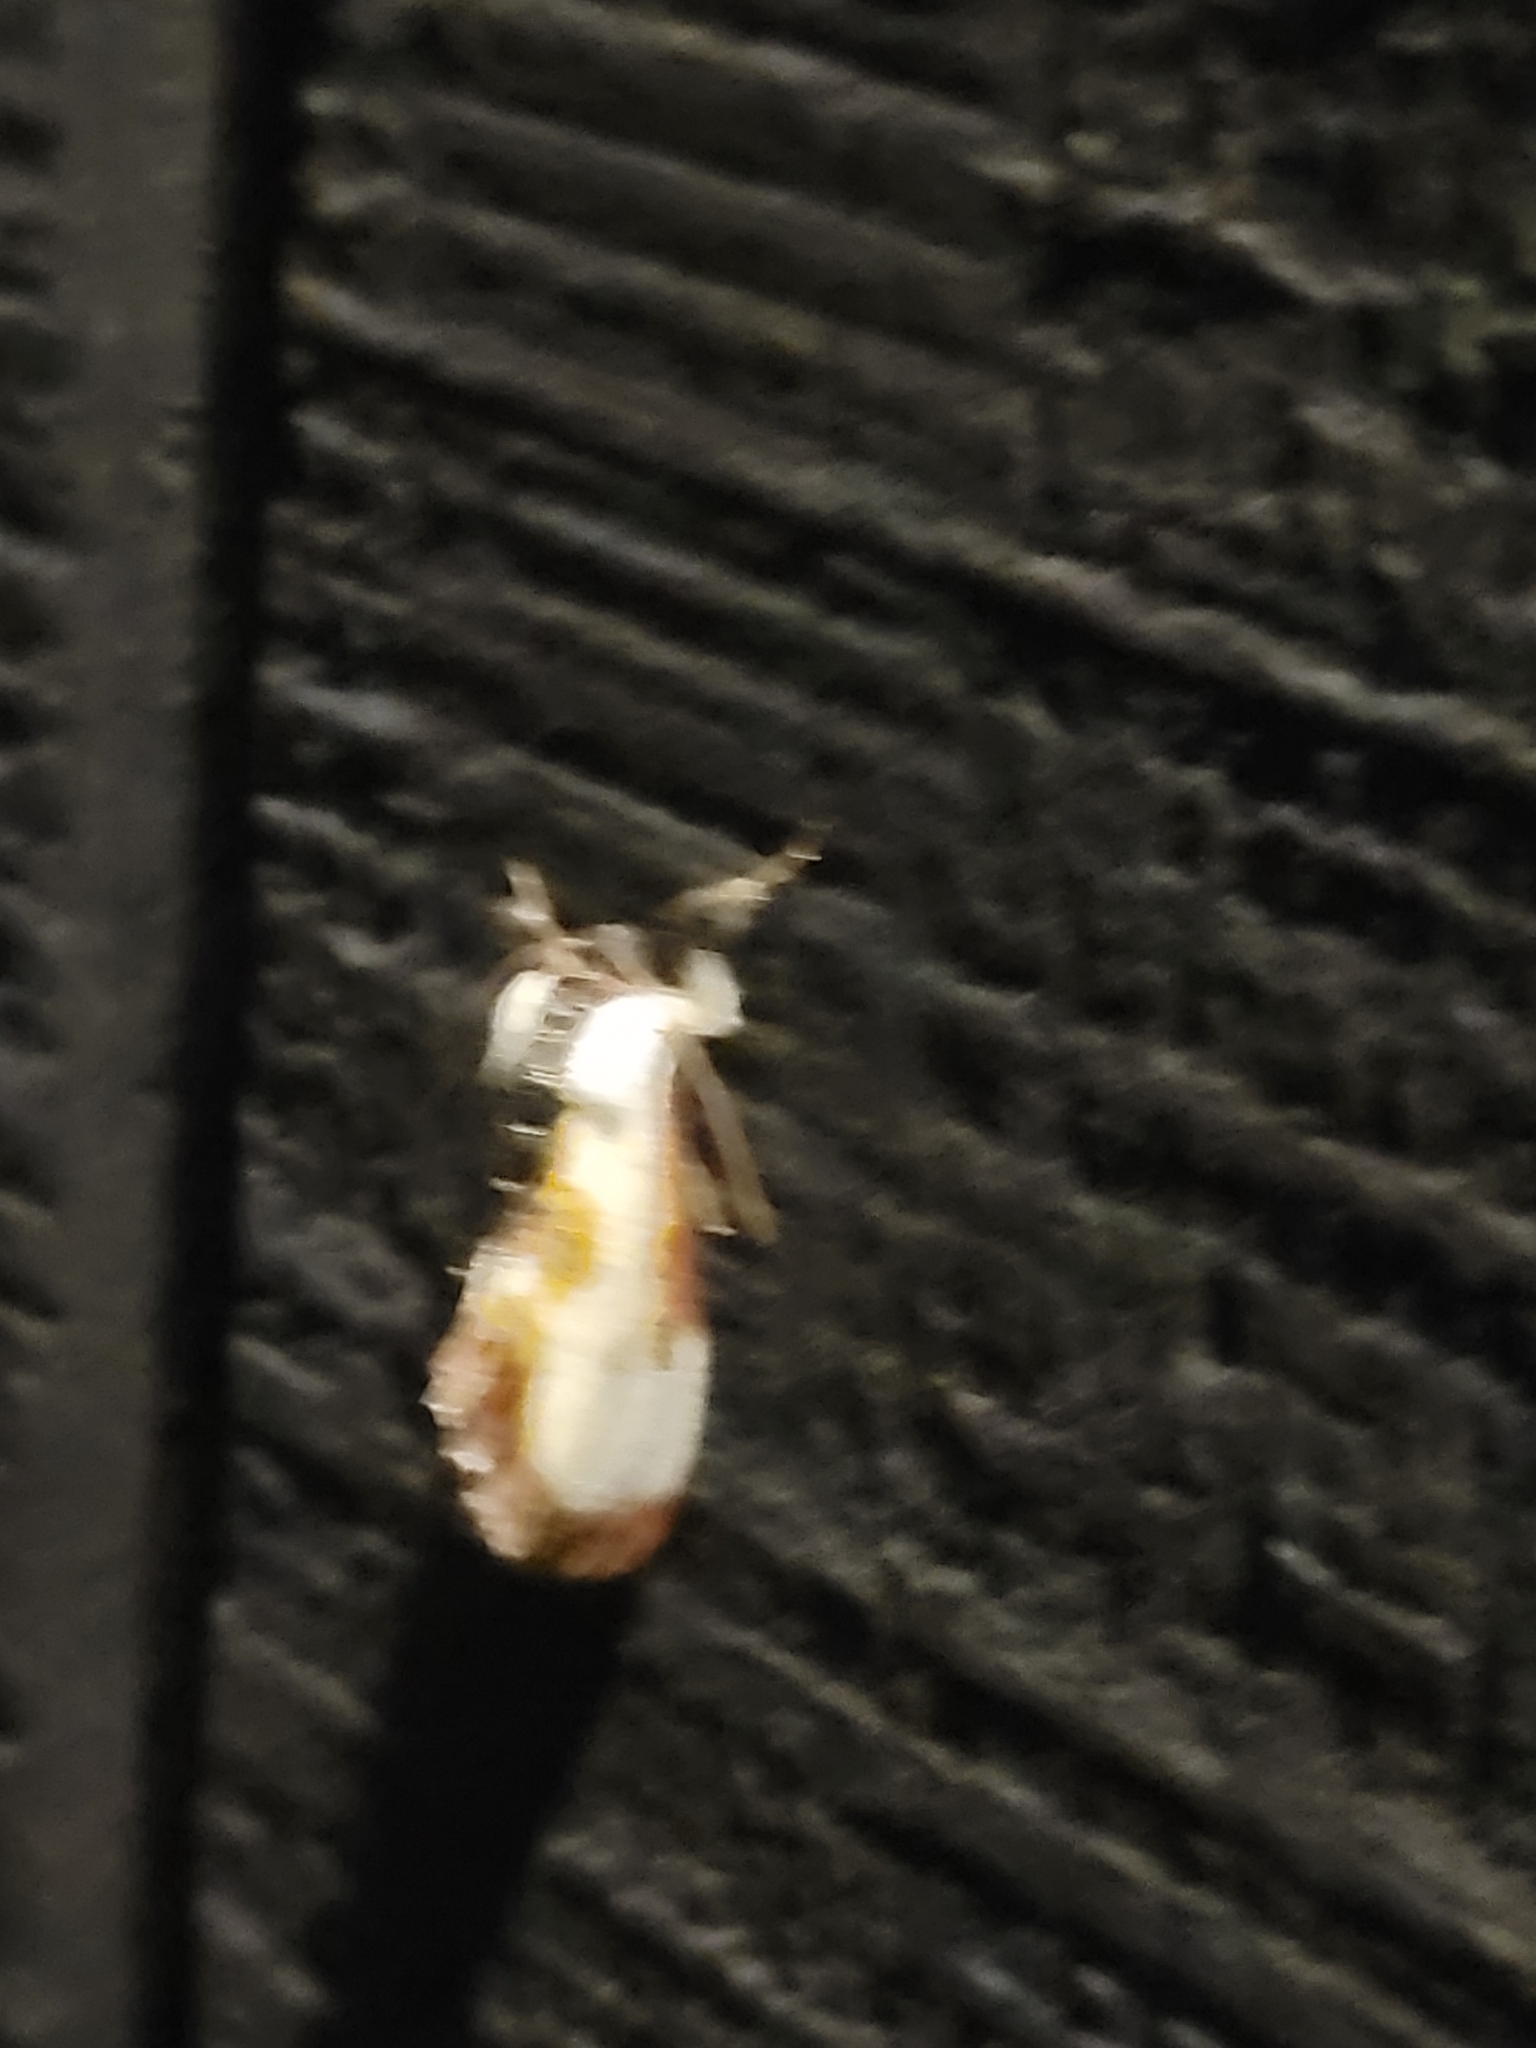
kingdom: Animalia
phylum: Arthropoda
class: Insecta
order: Lepidoptera
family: Noctuidae
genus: Eudryas
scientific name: Eudryas grata
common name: Beautiful wood-nymph
